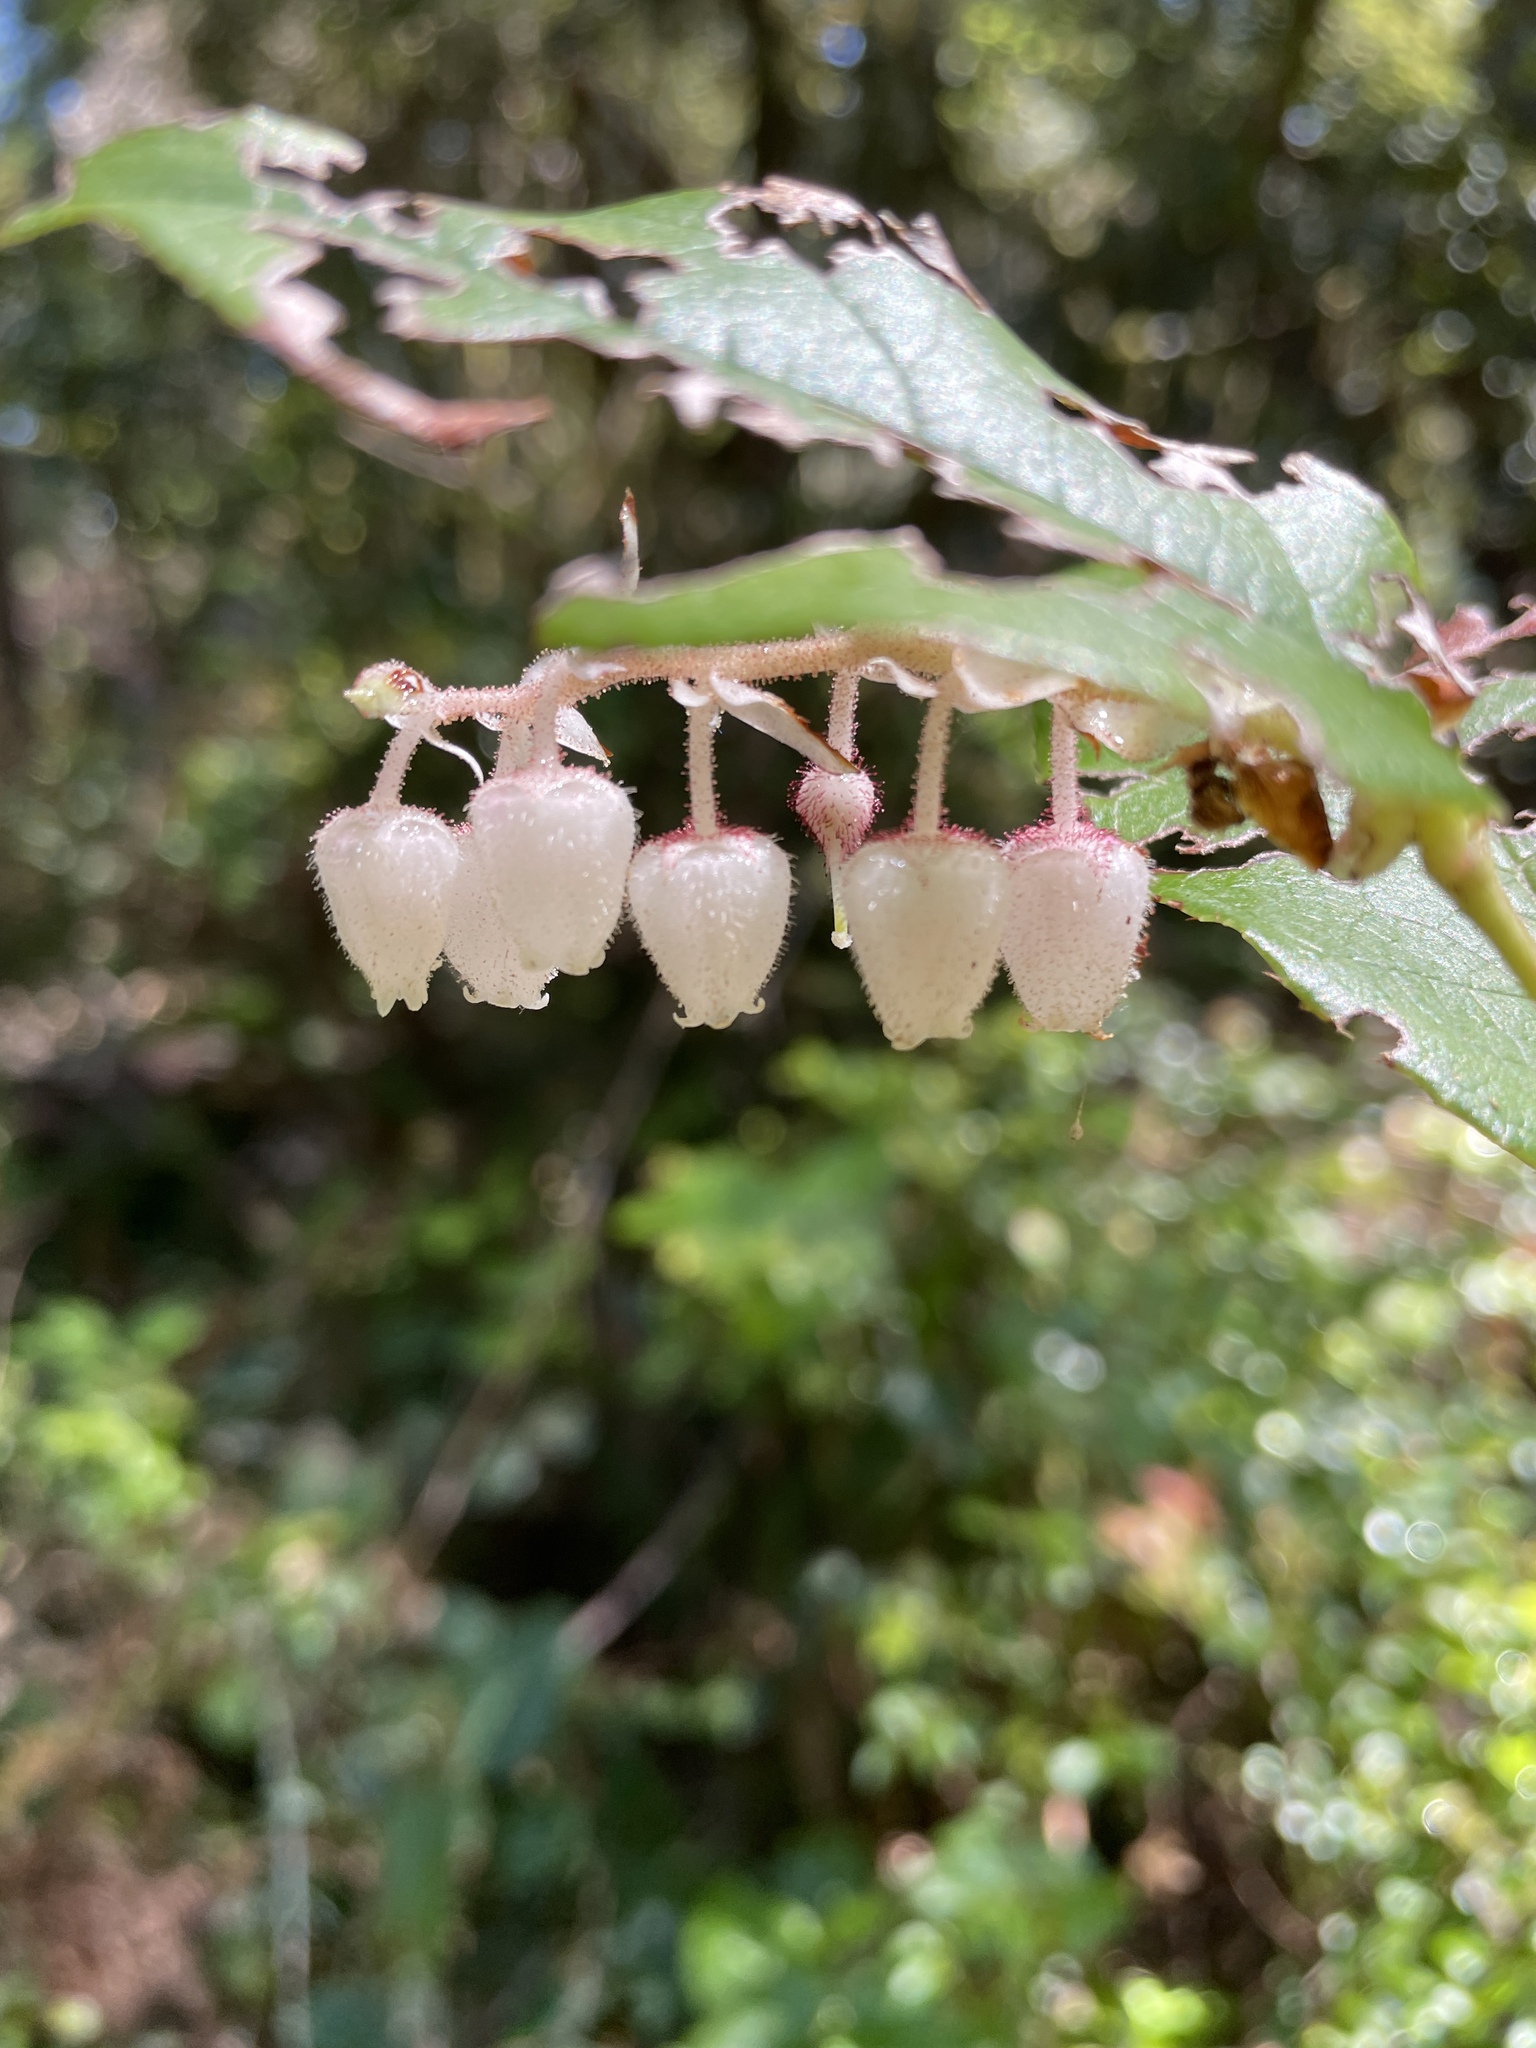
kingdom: Plantae
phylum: Tracheophyta
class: Magnoliopsida
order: Ericales
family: Ericaceae
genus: Gaultheria
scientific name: Gaultheria shallon
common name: Shallon
